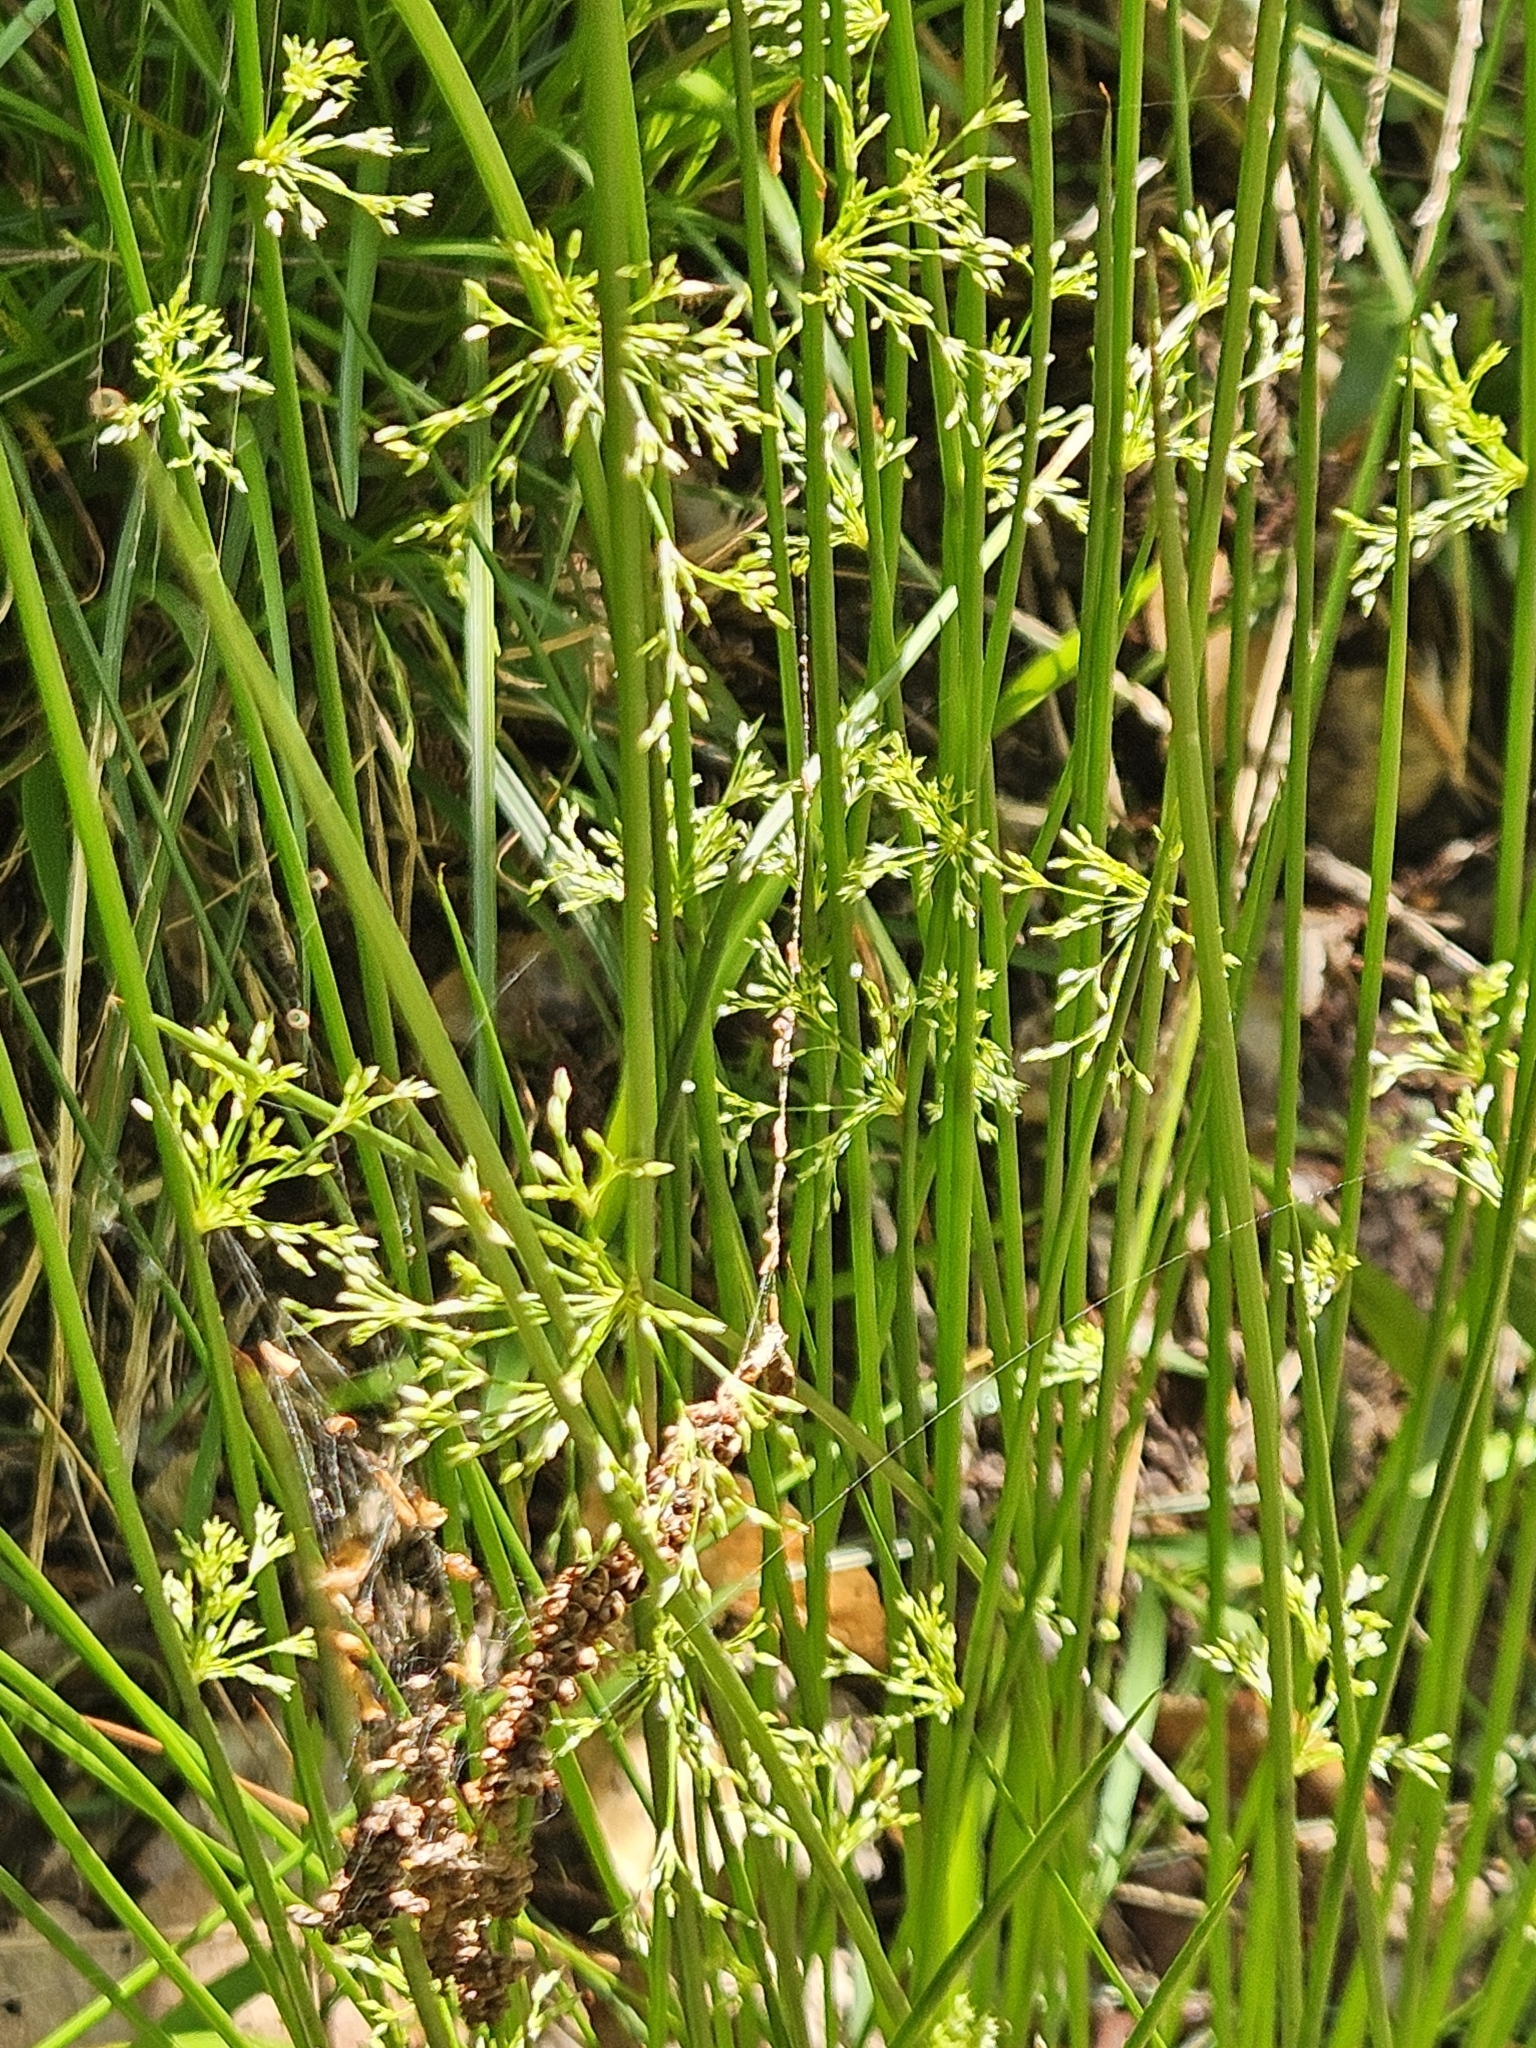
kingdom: Plantae
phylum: Tracheophyta
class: Liliopsida
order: Poales
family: Juncaceae
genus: Juncus
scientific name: Juncus effusus
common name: Soft rush
